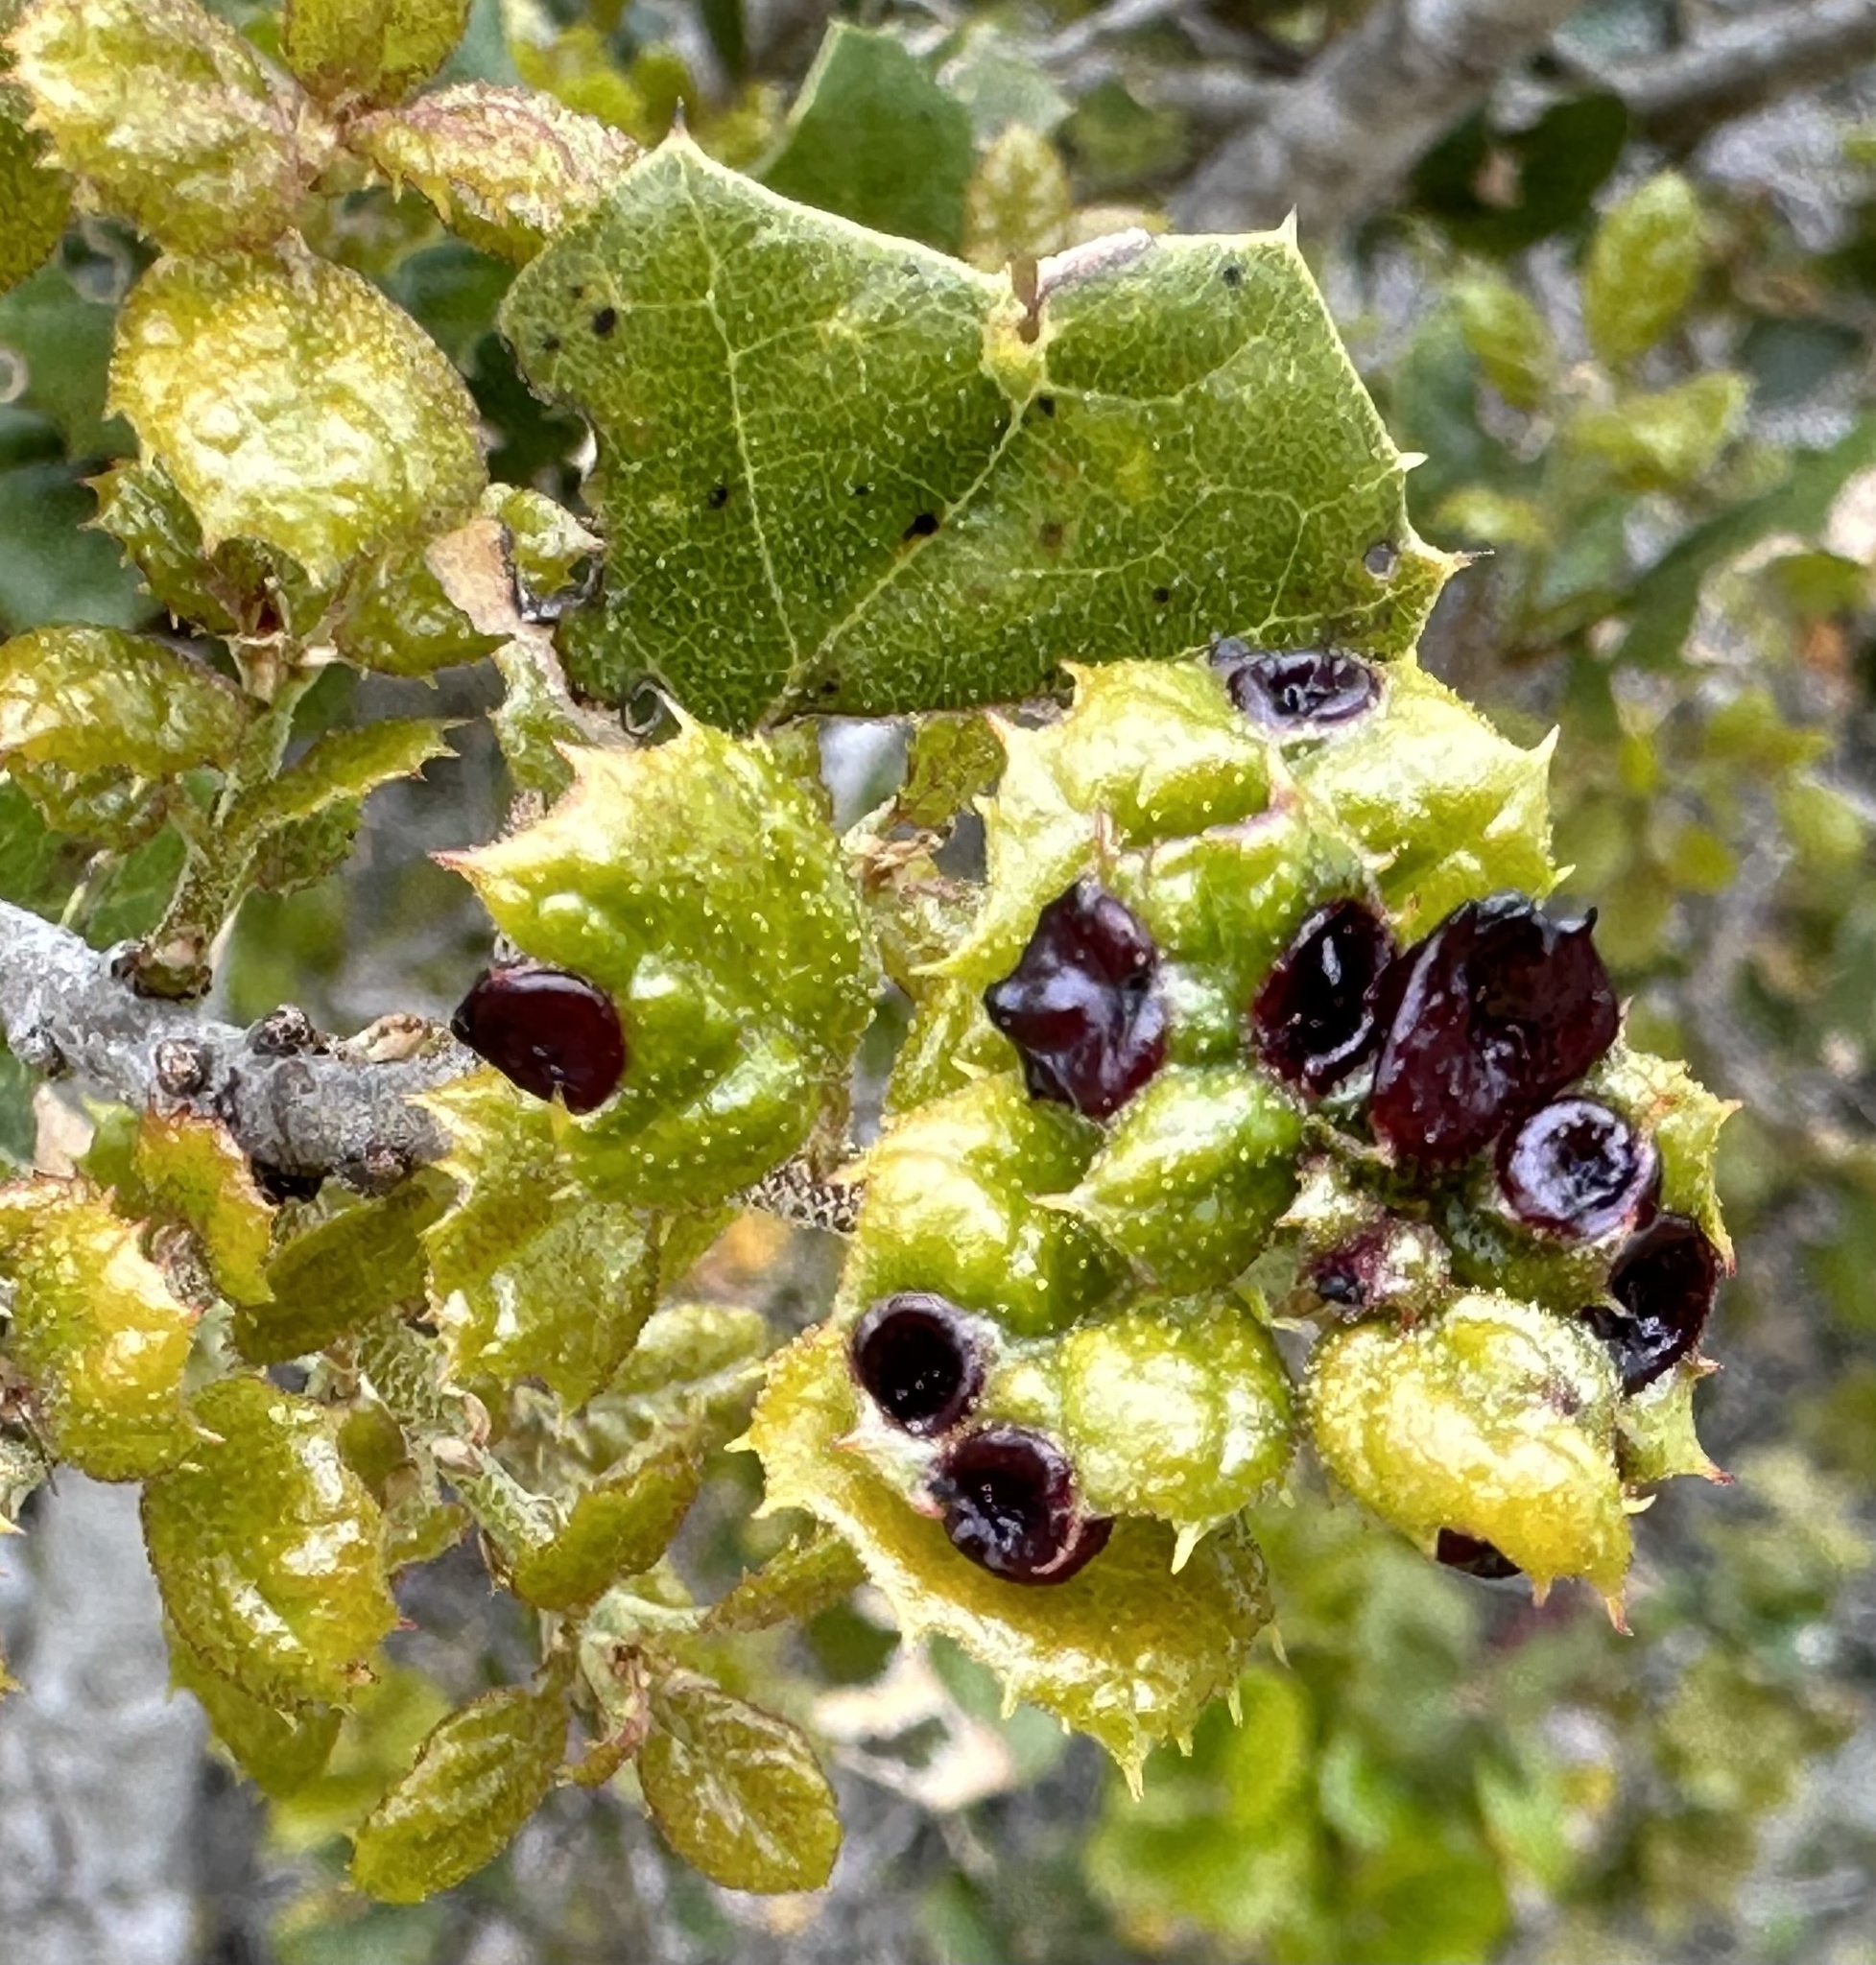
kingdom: Animalia
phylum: Arthropoda
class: Insecta
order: Hymenoptera
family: Cynipidae
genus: Dryocosmus
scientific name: Dryocosmus
